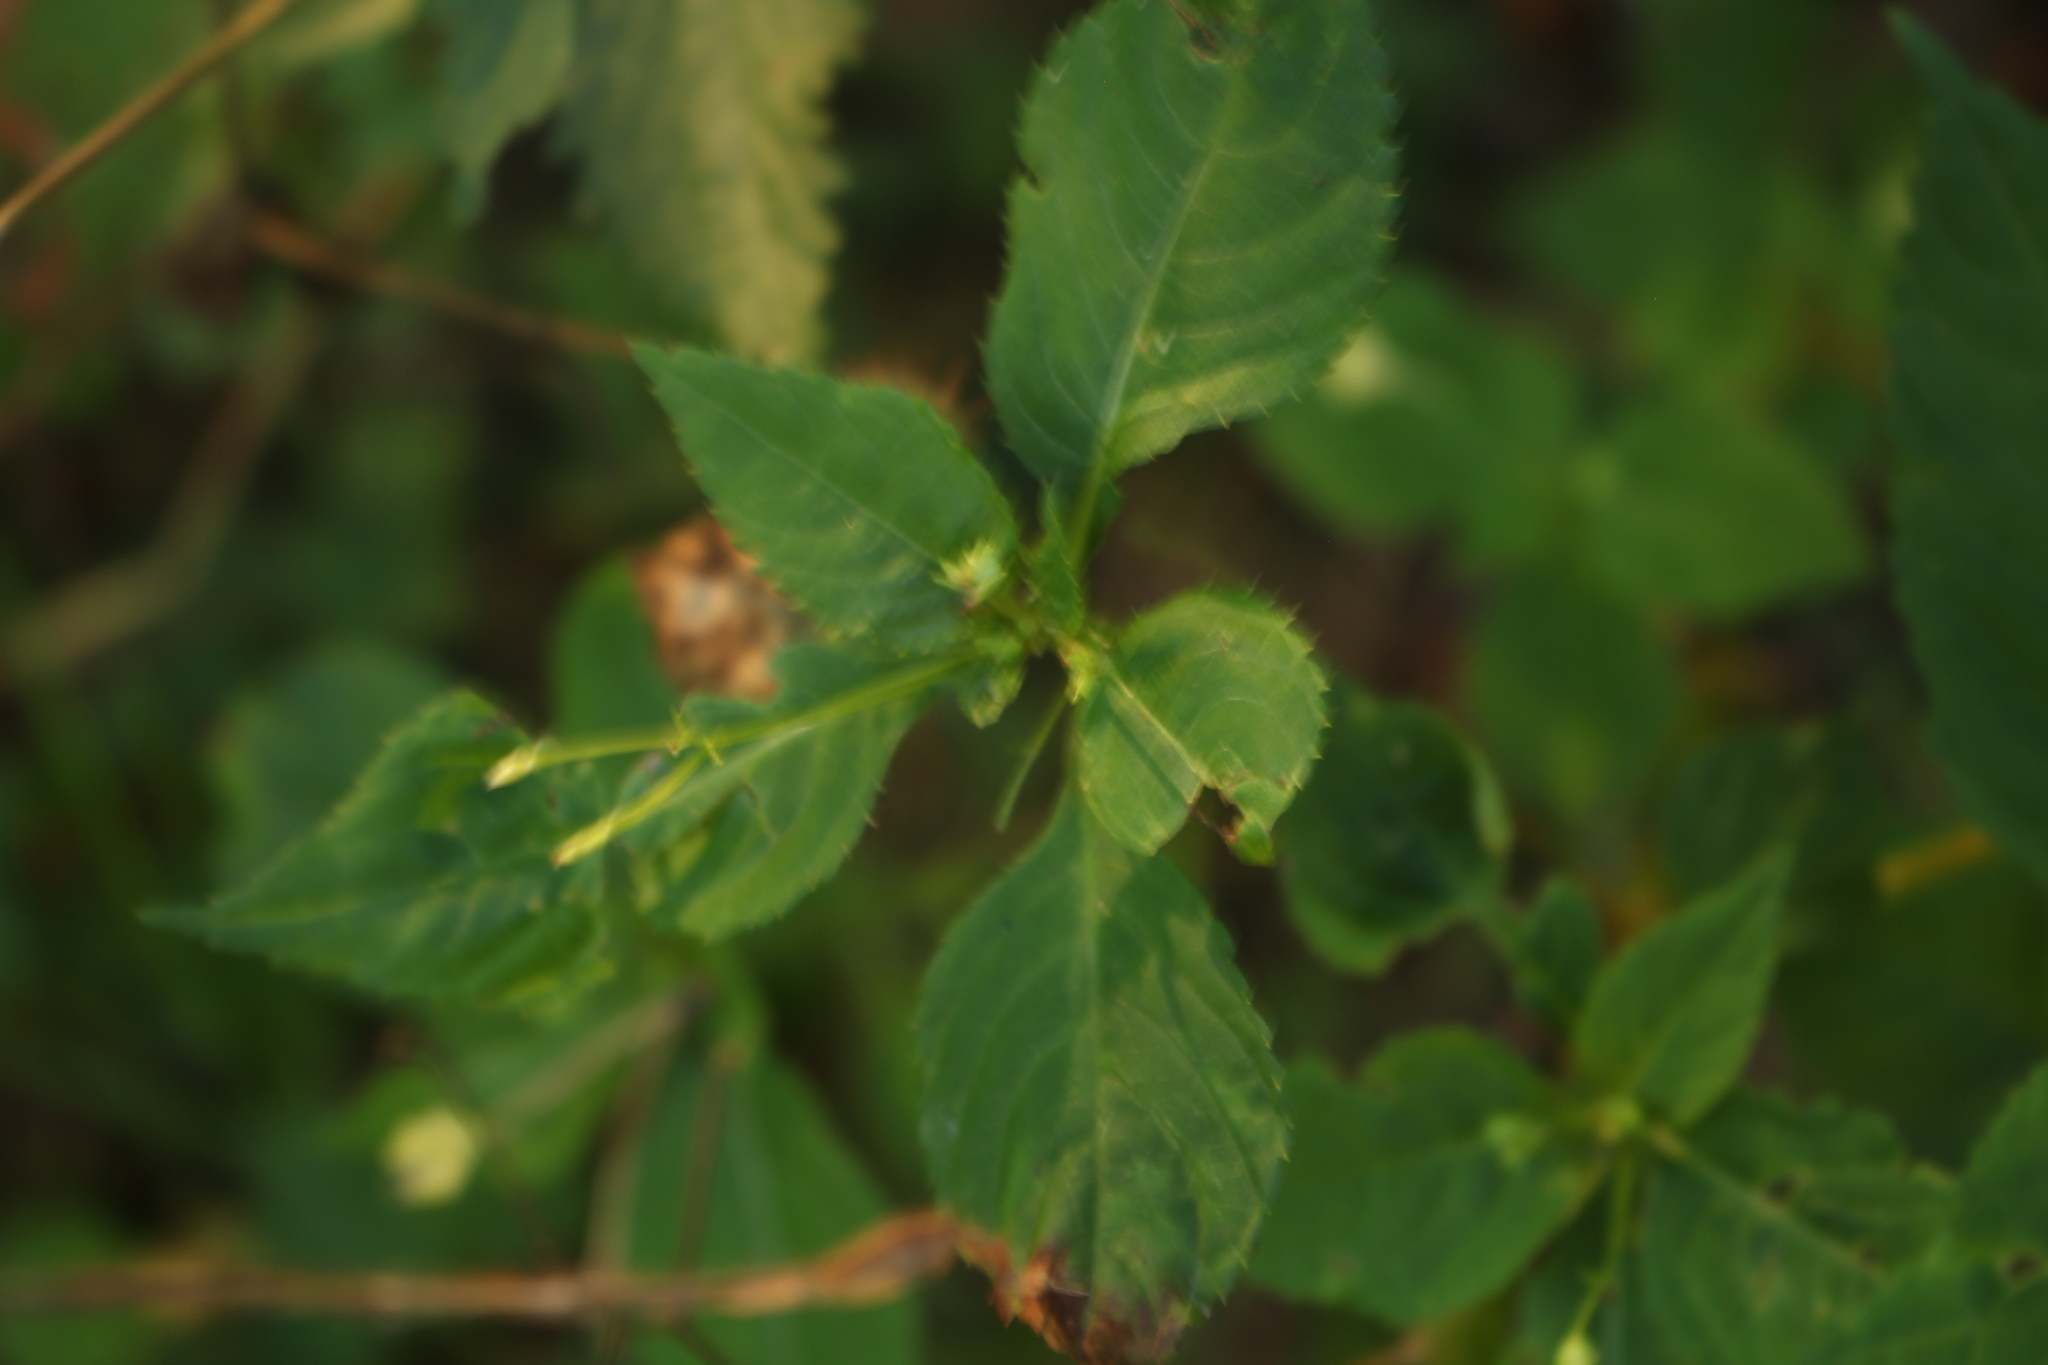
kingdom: Plantae
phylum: Tracheophyta
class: Magnoliopsida
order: Ericales
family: Balsaminaceae
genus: Impatiens
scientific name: Impatiens parviflora
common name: Small balsam
